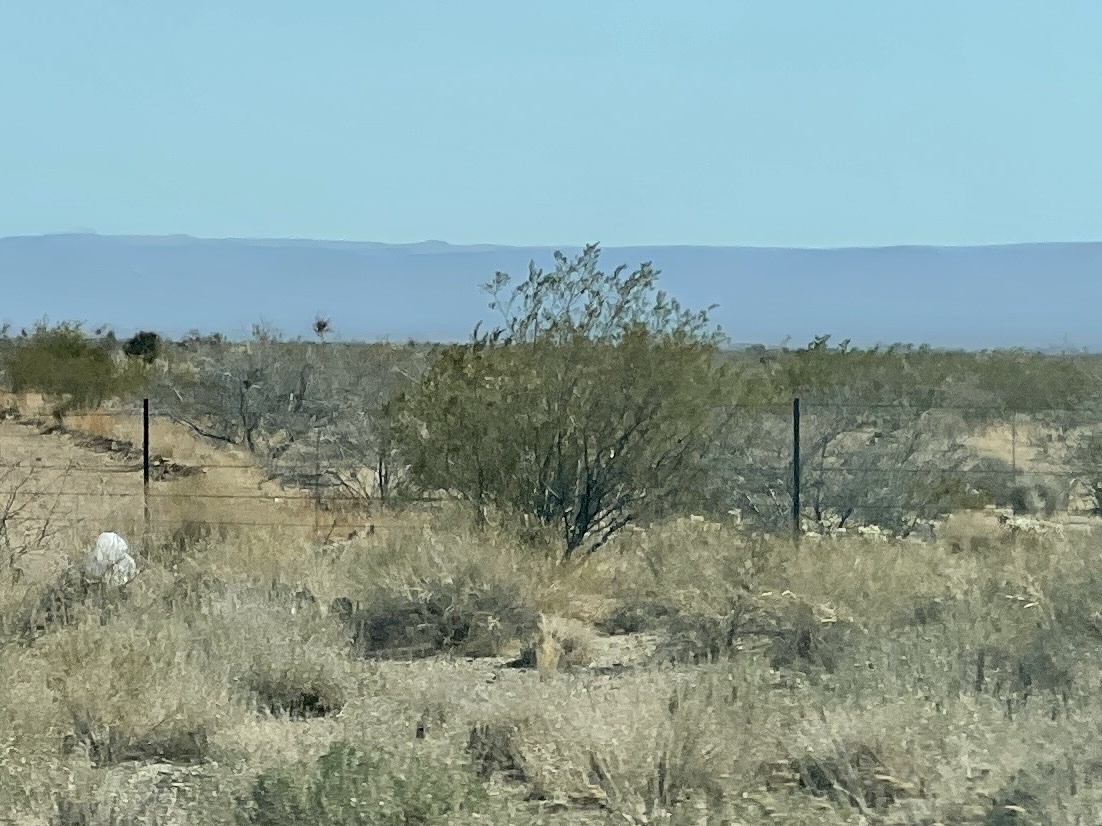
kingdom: Plantae
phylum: Tracheophyta
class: Magnoliopsida
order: Zygophyllales
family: Zygophyllaceae
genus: Larrea
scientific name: Larrea tridentata
